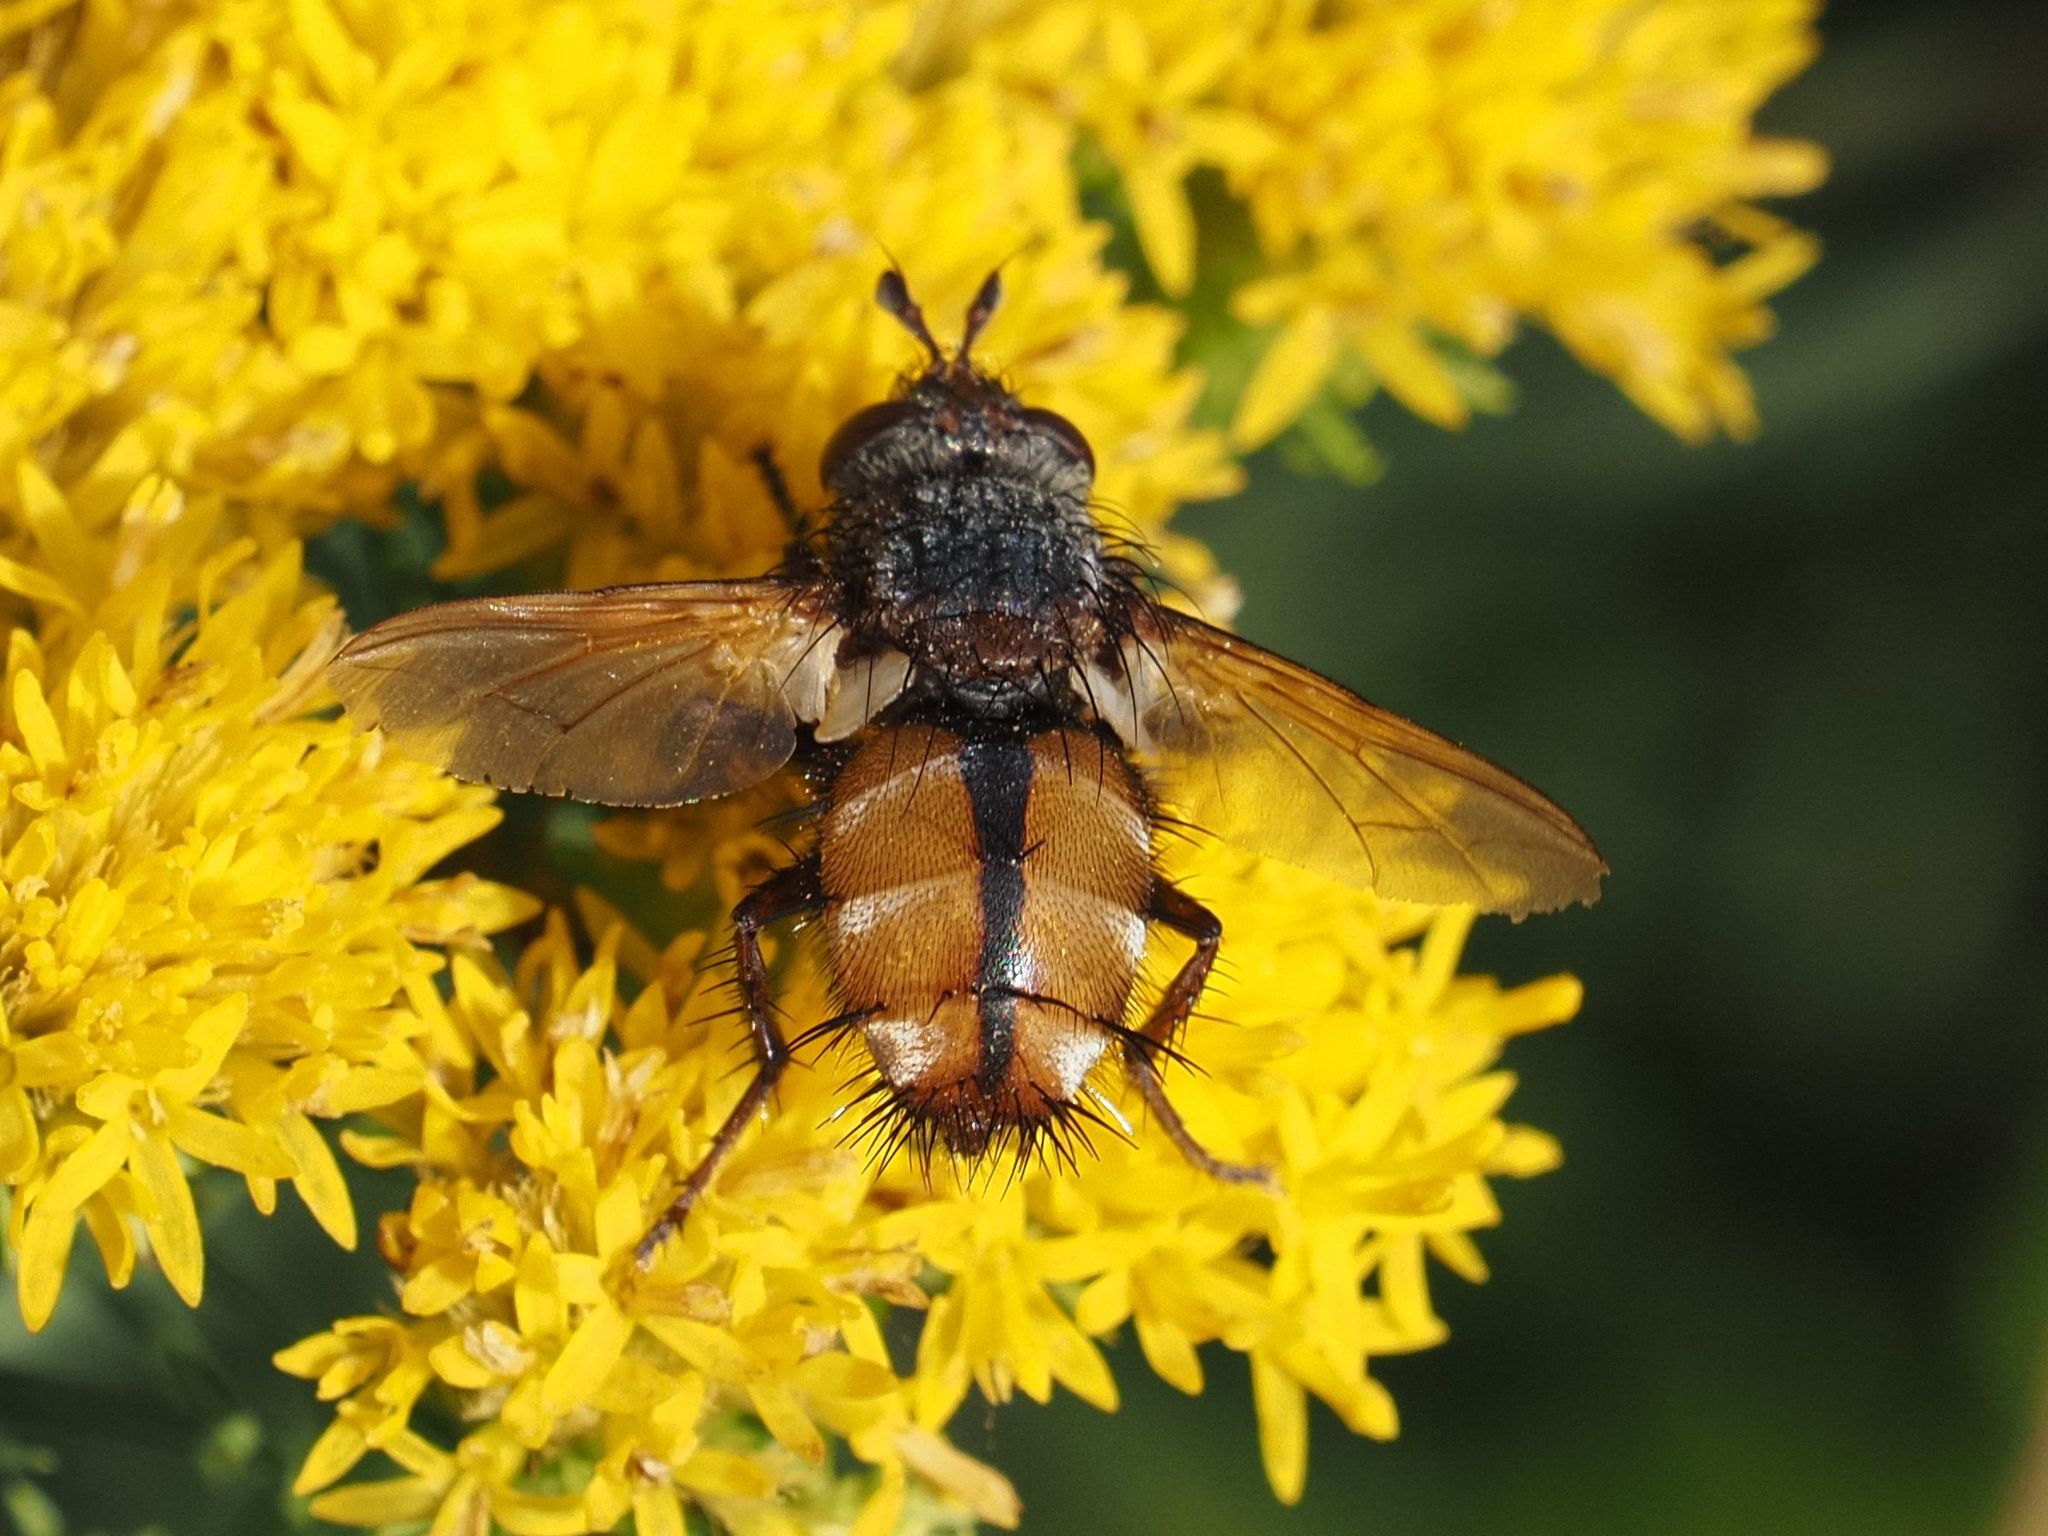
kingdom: Animalia
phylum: Arthropoda
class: Insecta
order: Diptera
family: Tachinidae
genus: Tachina
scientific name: Tachina fera
